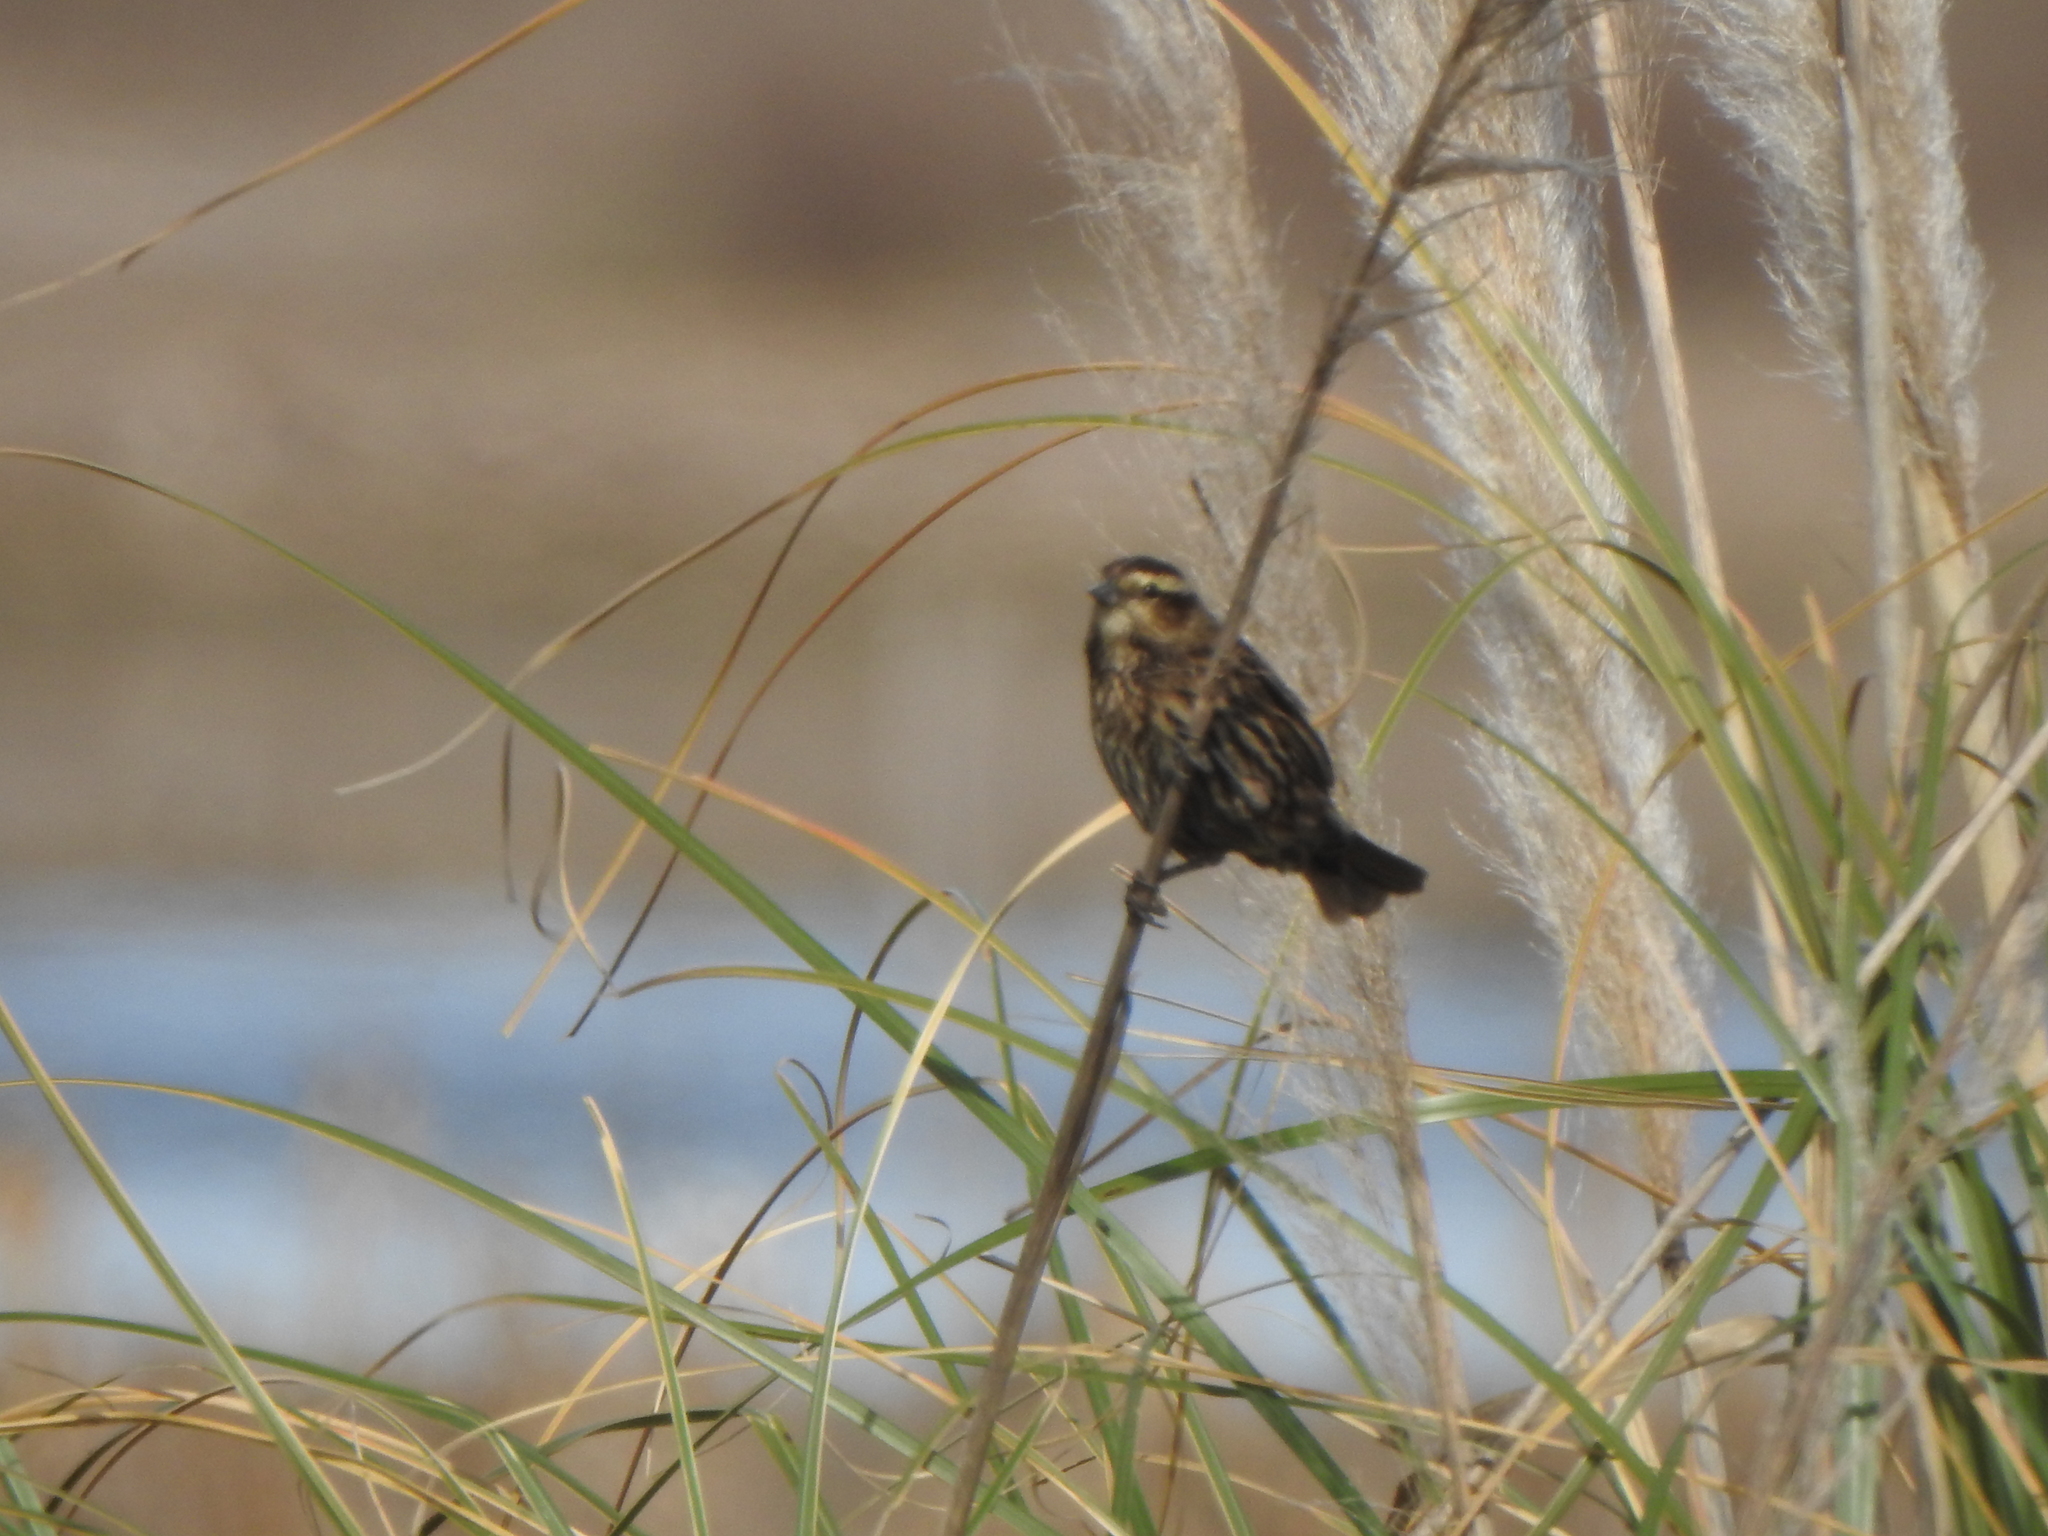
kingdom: Animalia
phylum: Chordata
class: Aves
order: Passeriformes
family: Icteridae
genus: Agelasticus
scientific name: Agelasticus thilius
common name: Yellow-winged blackbird
